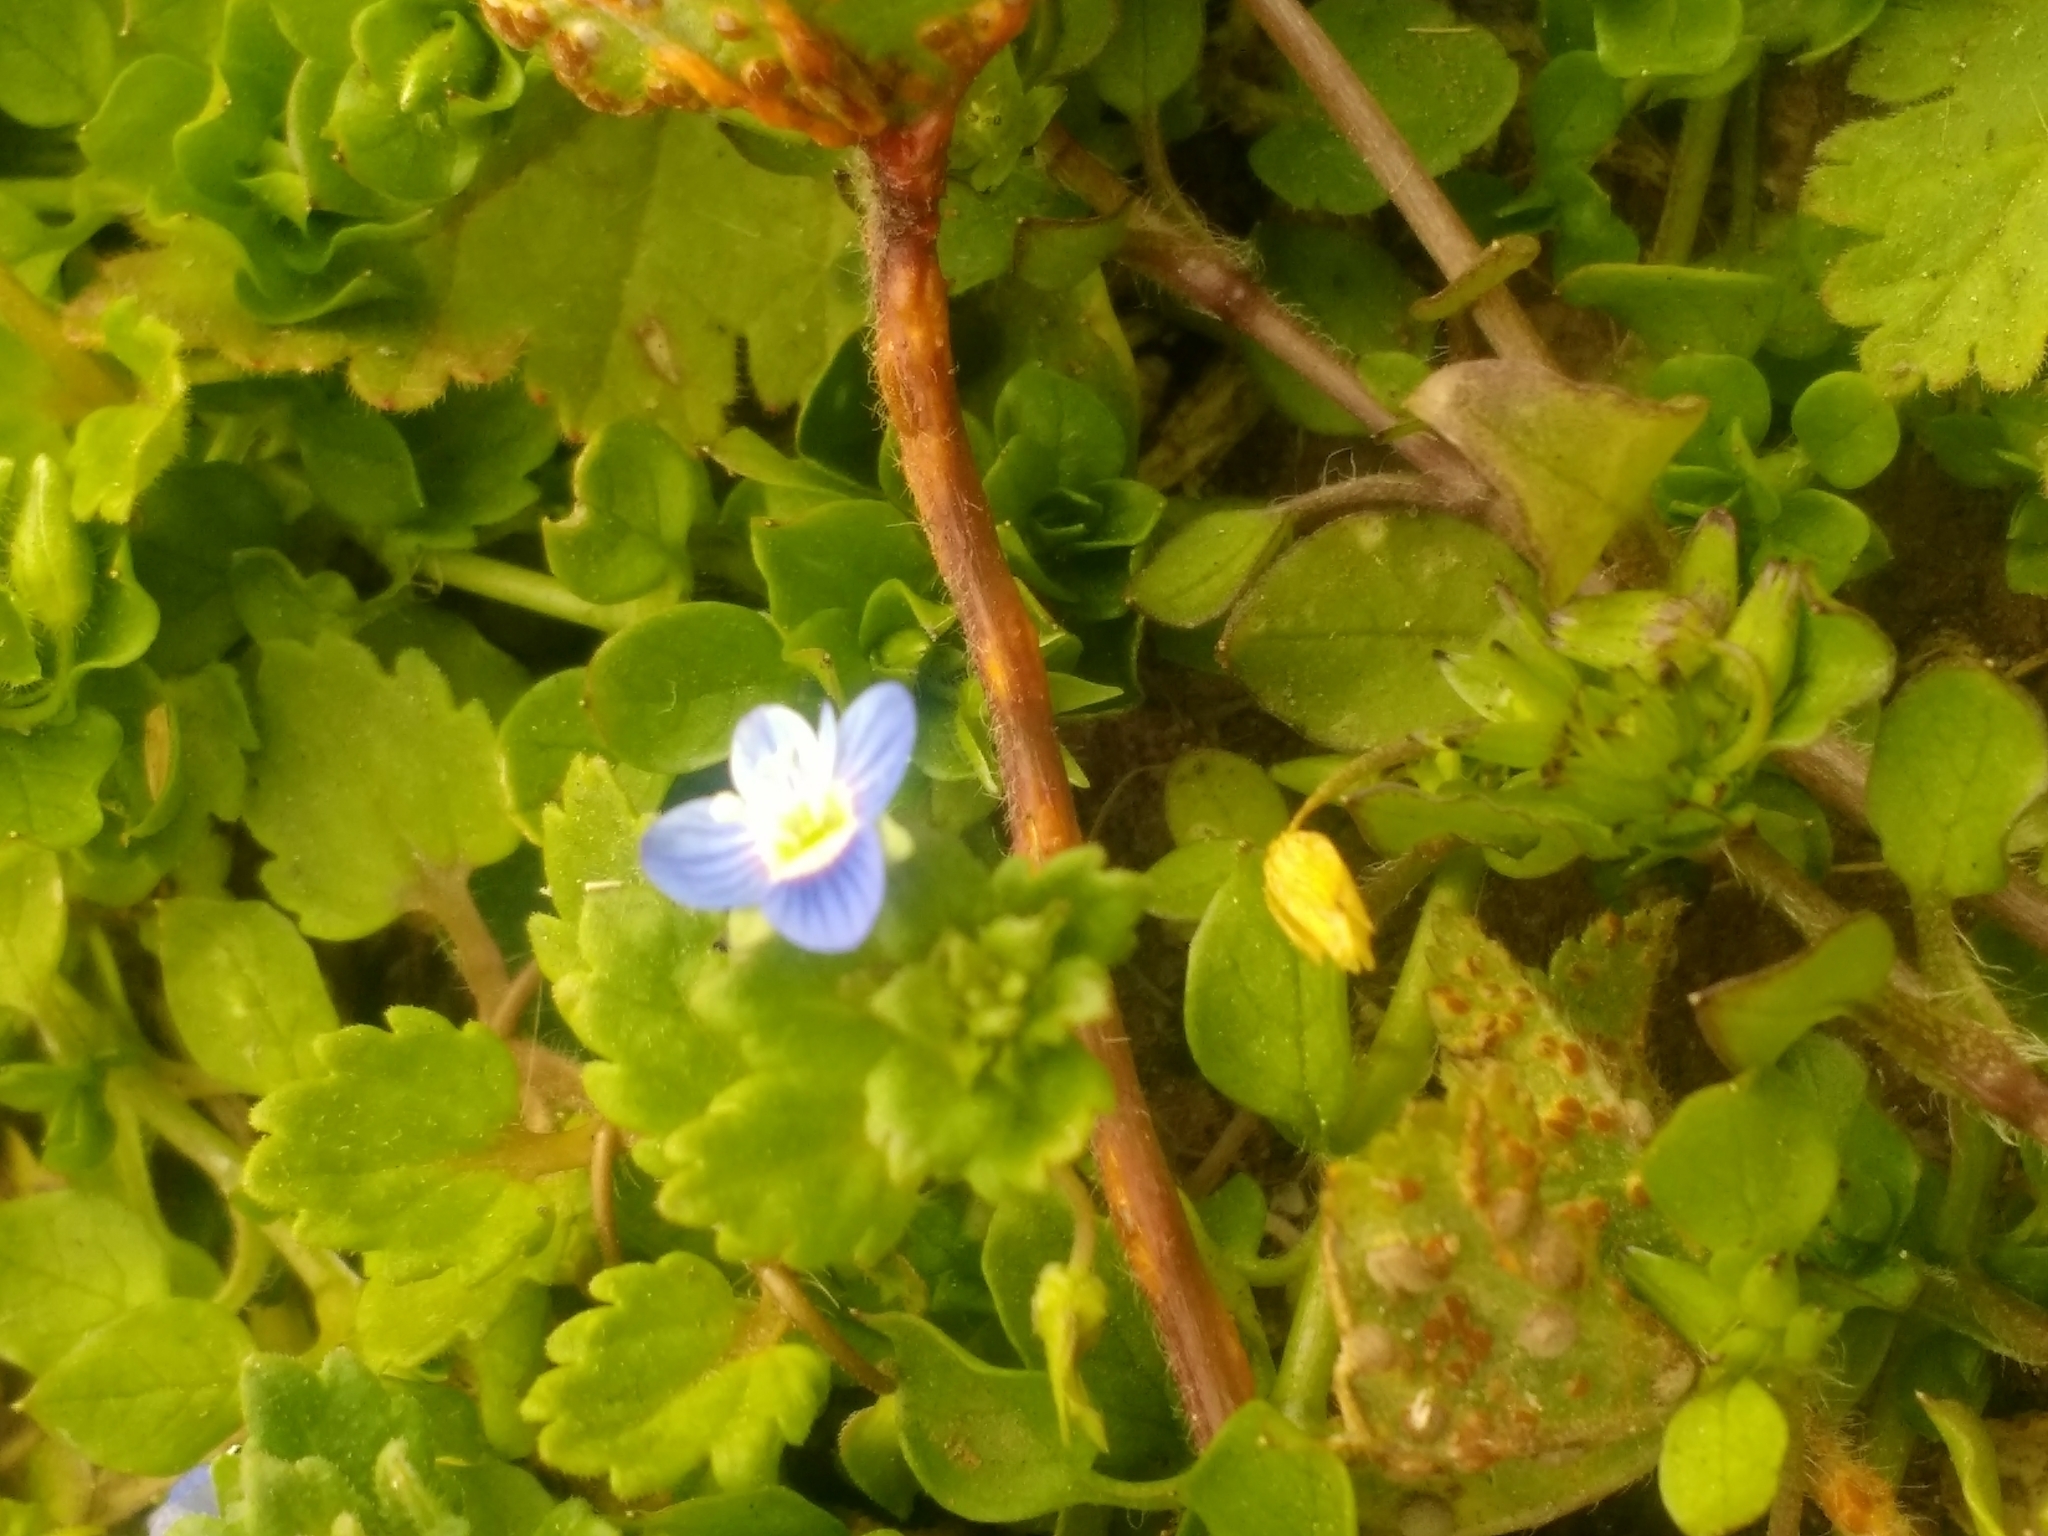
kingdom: Plantae
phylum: Tracheophyta
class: Magnoliopsida
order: Lamiales
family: Plantaginaceae
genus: Veronica
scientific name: Veronica persica
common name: Common field-speedwell
